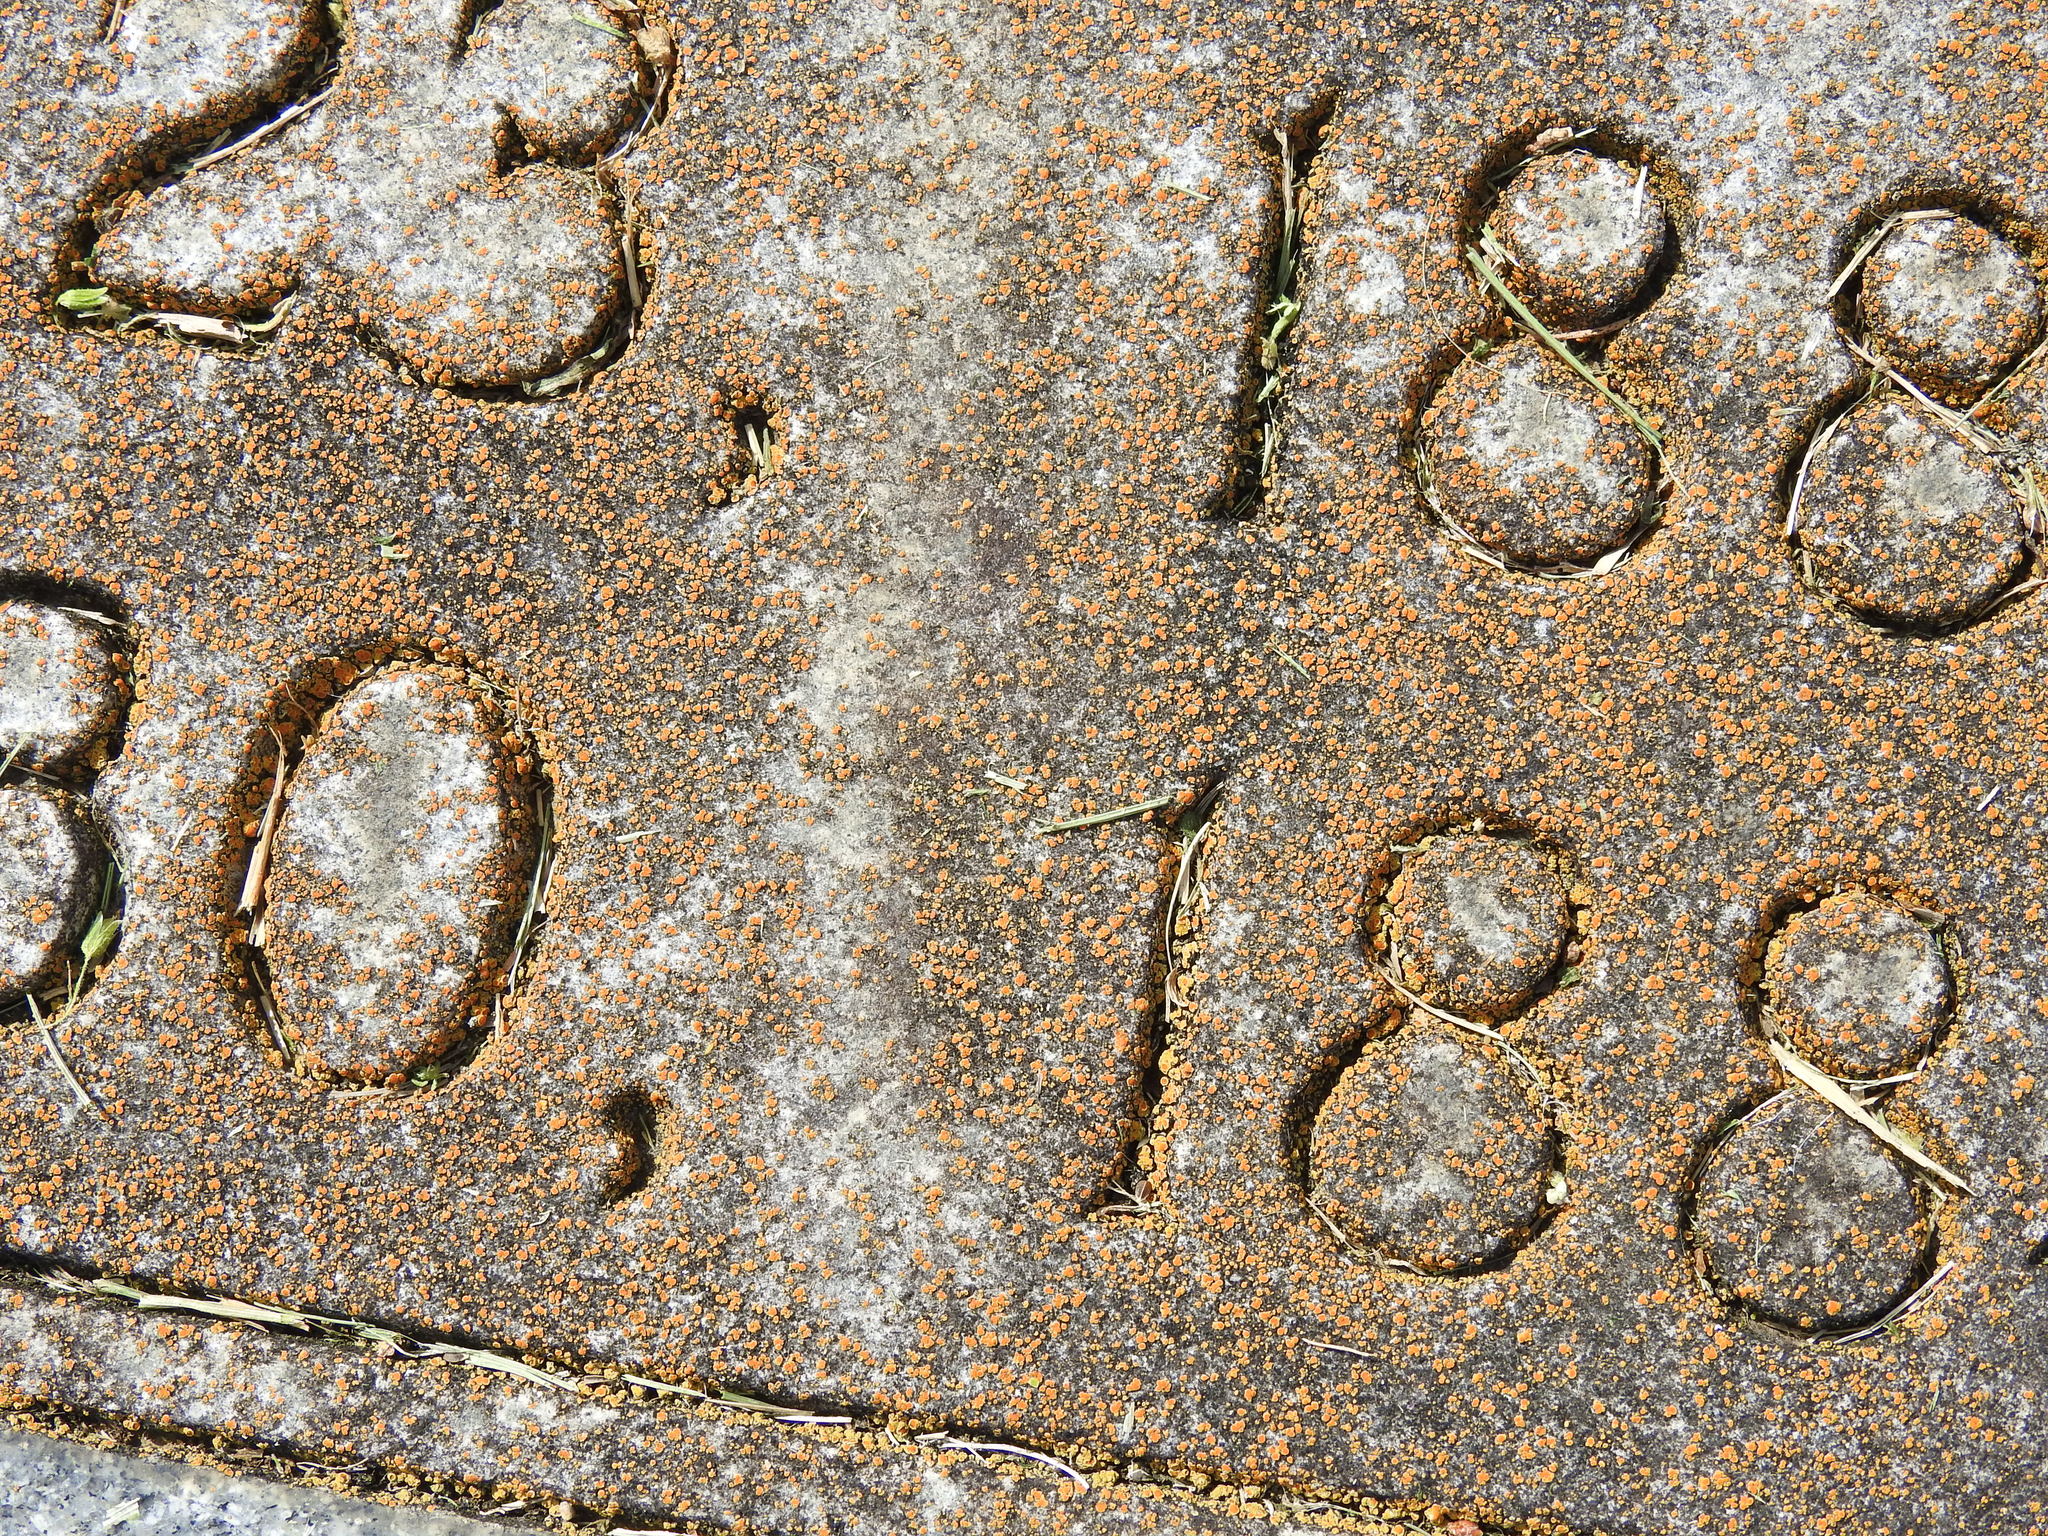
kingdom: Fungi
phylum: Ascomycota
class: Lecanoromycetes
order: Teloschistales
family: Teloschistaceae
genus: Xanthocarpia
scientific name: Xanthocarpia feracissima
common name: Sidewalk firedot
